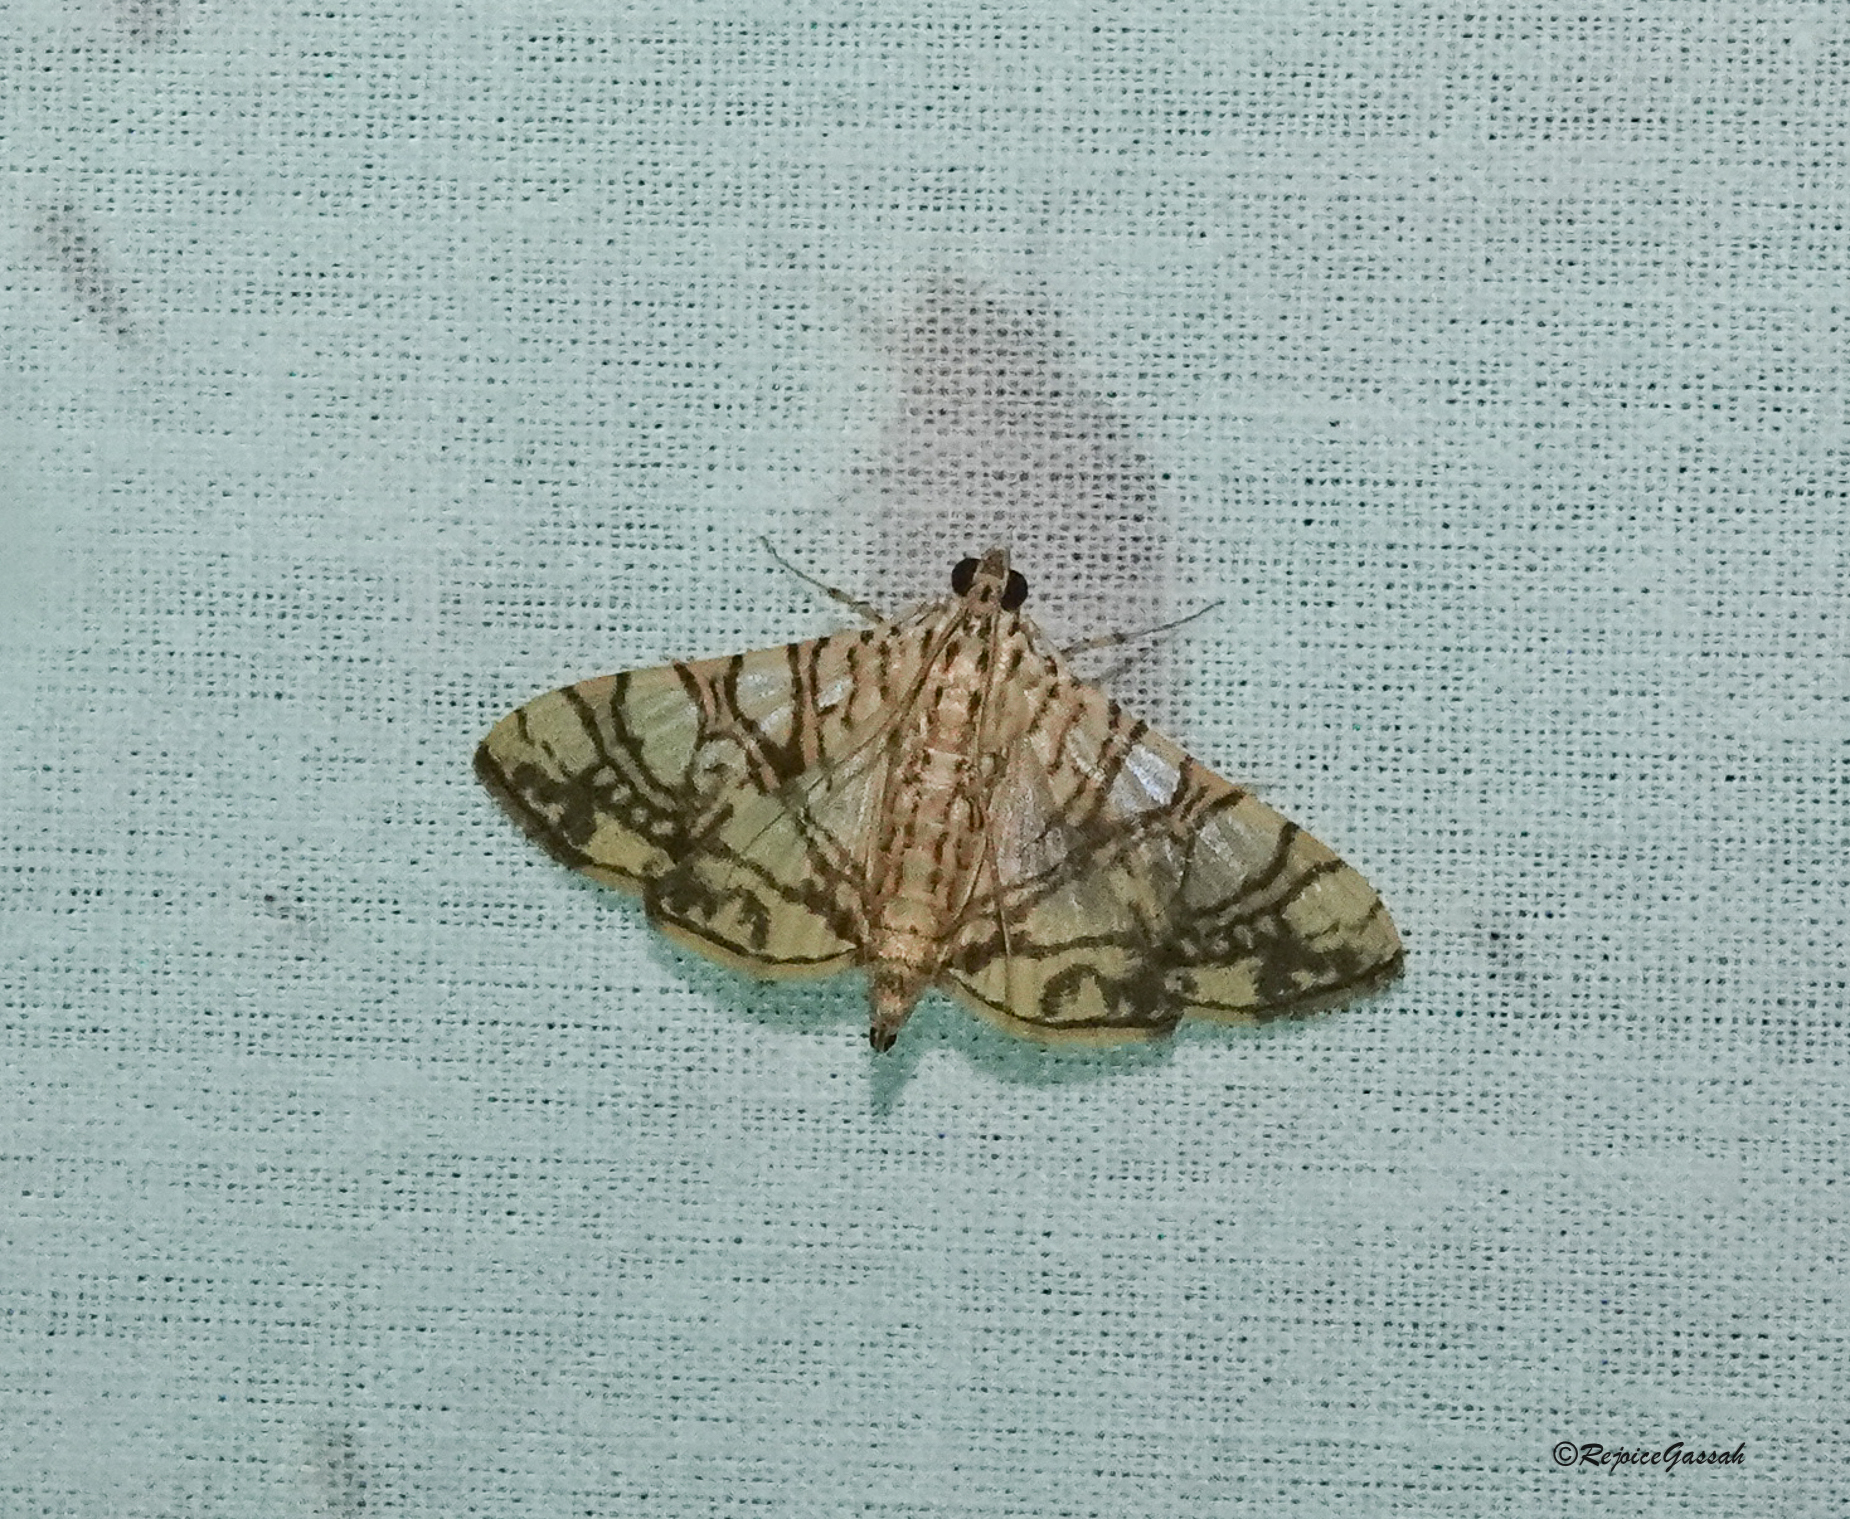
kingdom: Animalia
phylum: Arthropoda
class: Insecta
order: Lepidoptera
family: Crambidae
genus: Glyphodes
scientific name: Glyphodes caesalis
